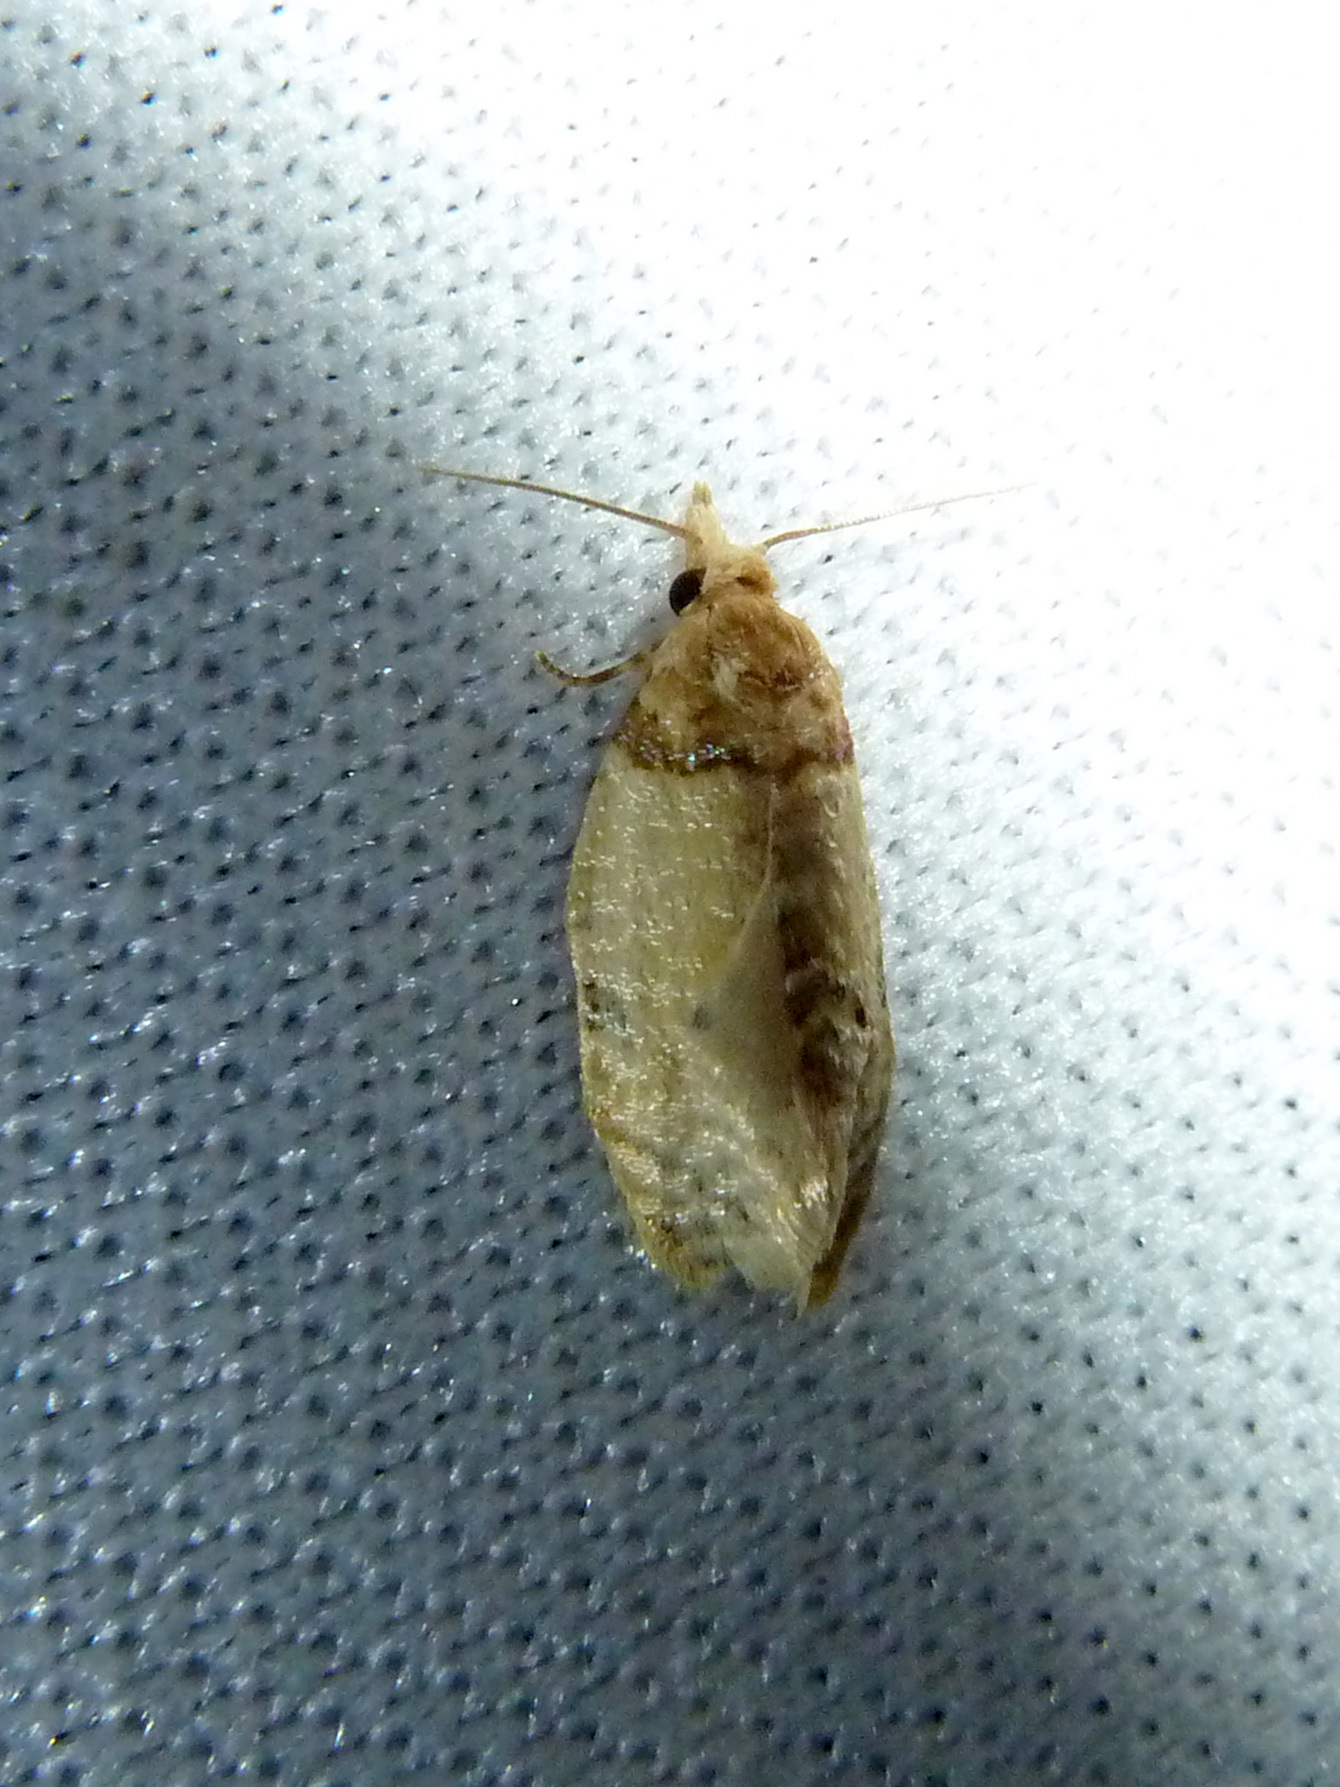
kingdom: Animalia
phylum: Arthropoda
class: Insecta
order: Lepidoptera
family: Tortricidae
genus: Henricus
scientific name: Henricus umbrabasana
